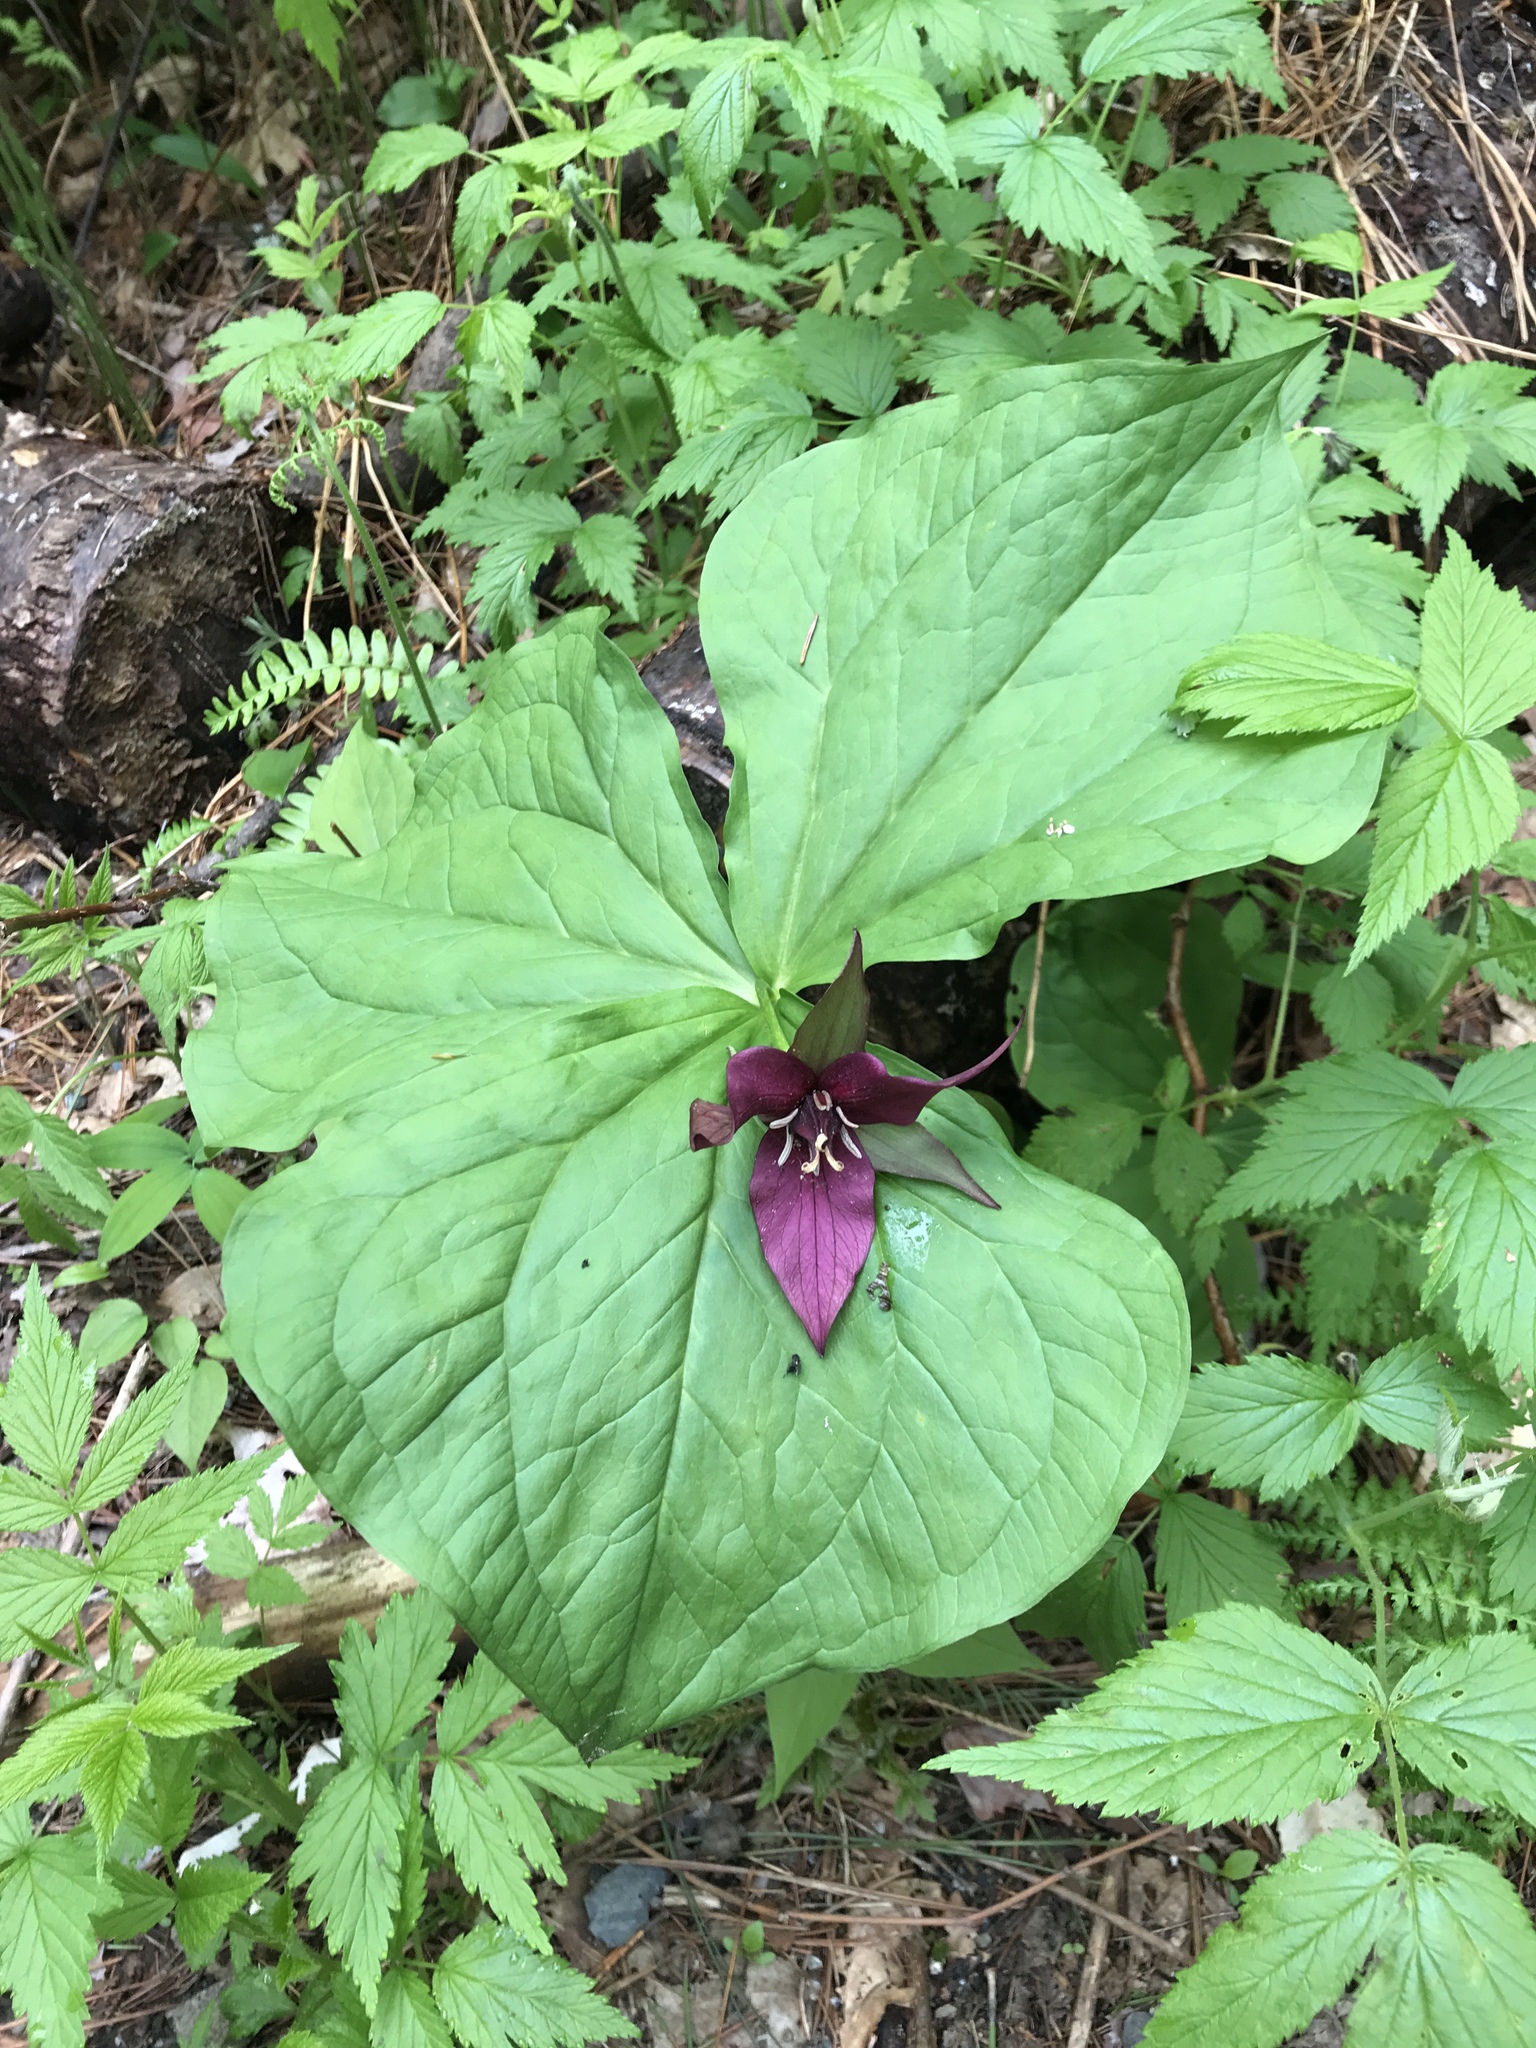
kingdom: Plantae
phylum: Tracheophyta
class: Liliopsida
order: Liliales
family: Melanthiaceae
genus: Trillium
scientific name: Trillium erectum
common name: Purple trillium
